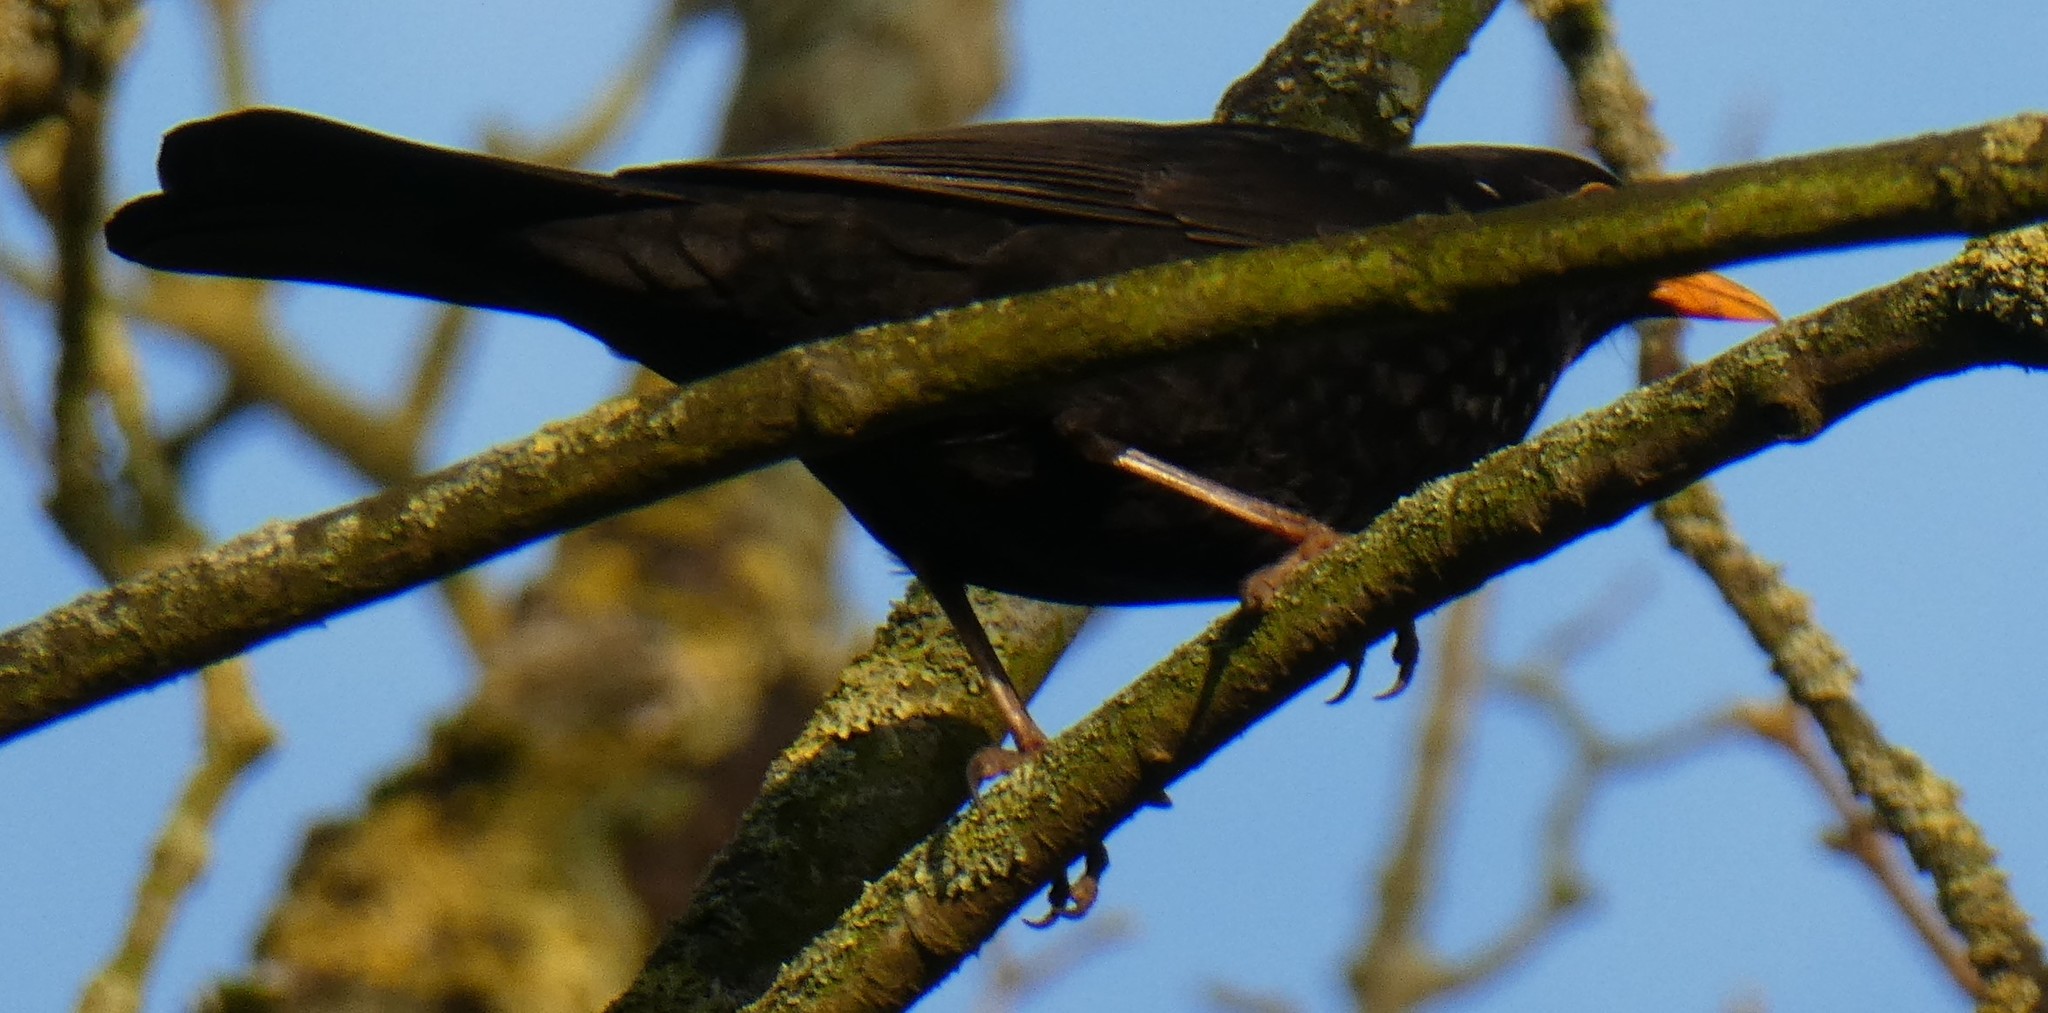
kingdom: Animalia
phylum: Chordata
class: Aves
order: Passeriformes
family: Turdidae
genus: Turdus
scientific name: Turdus merula
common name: Common blackbird
